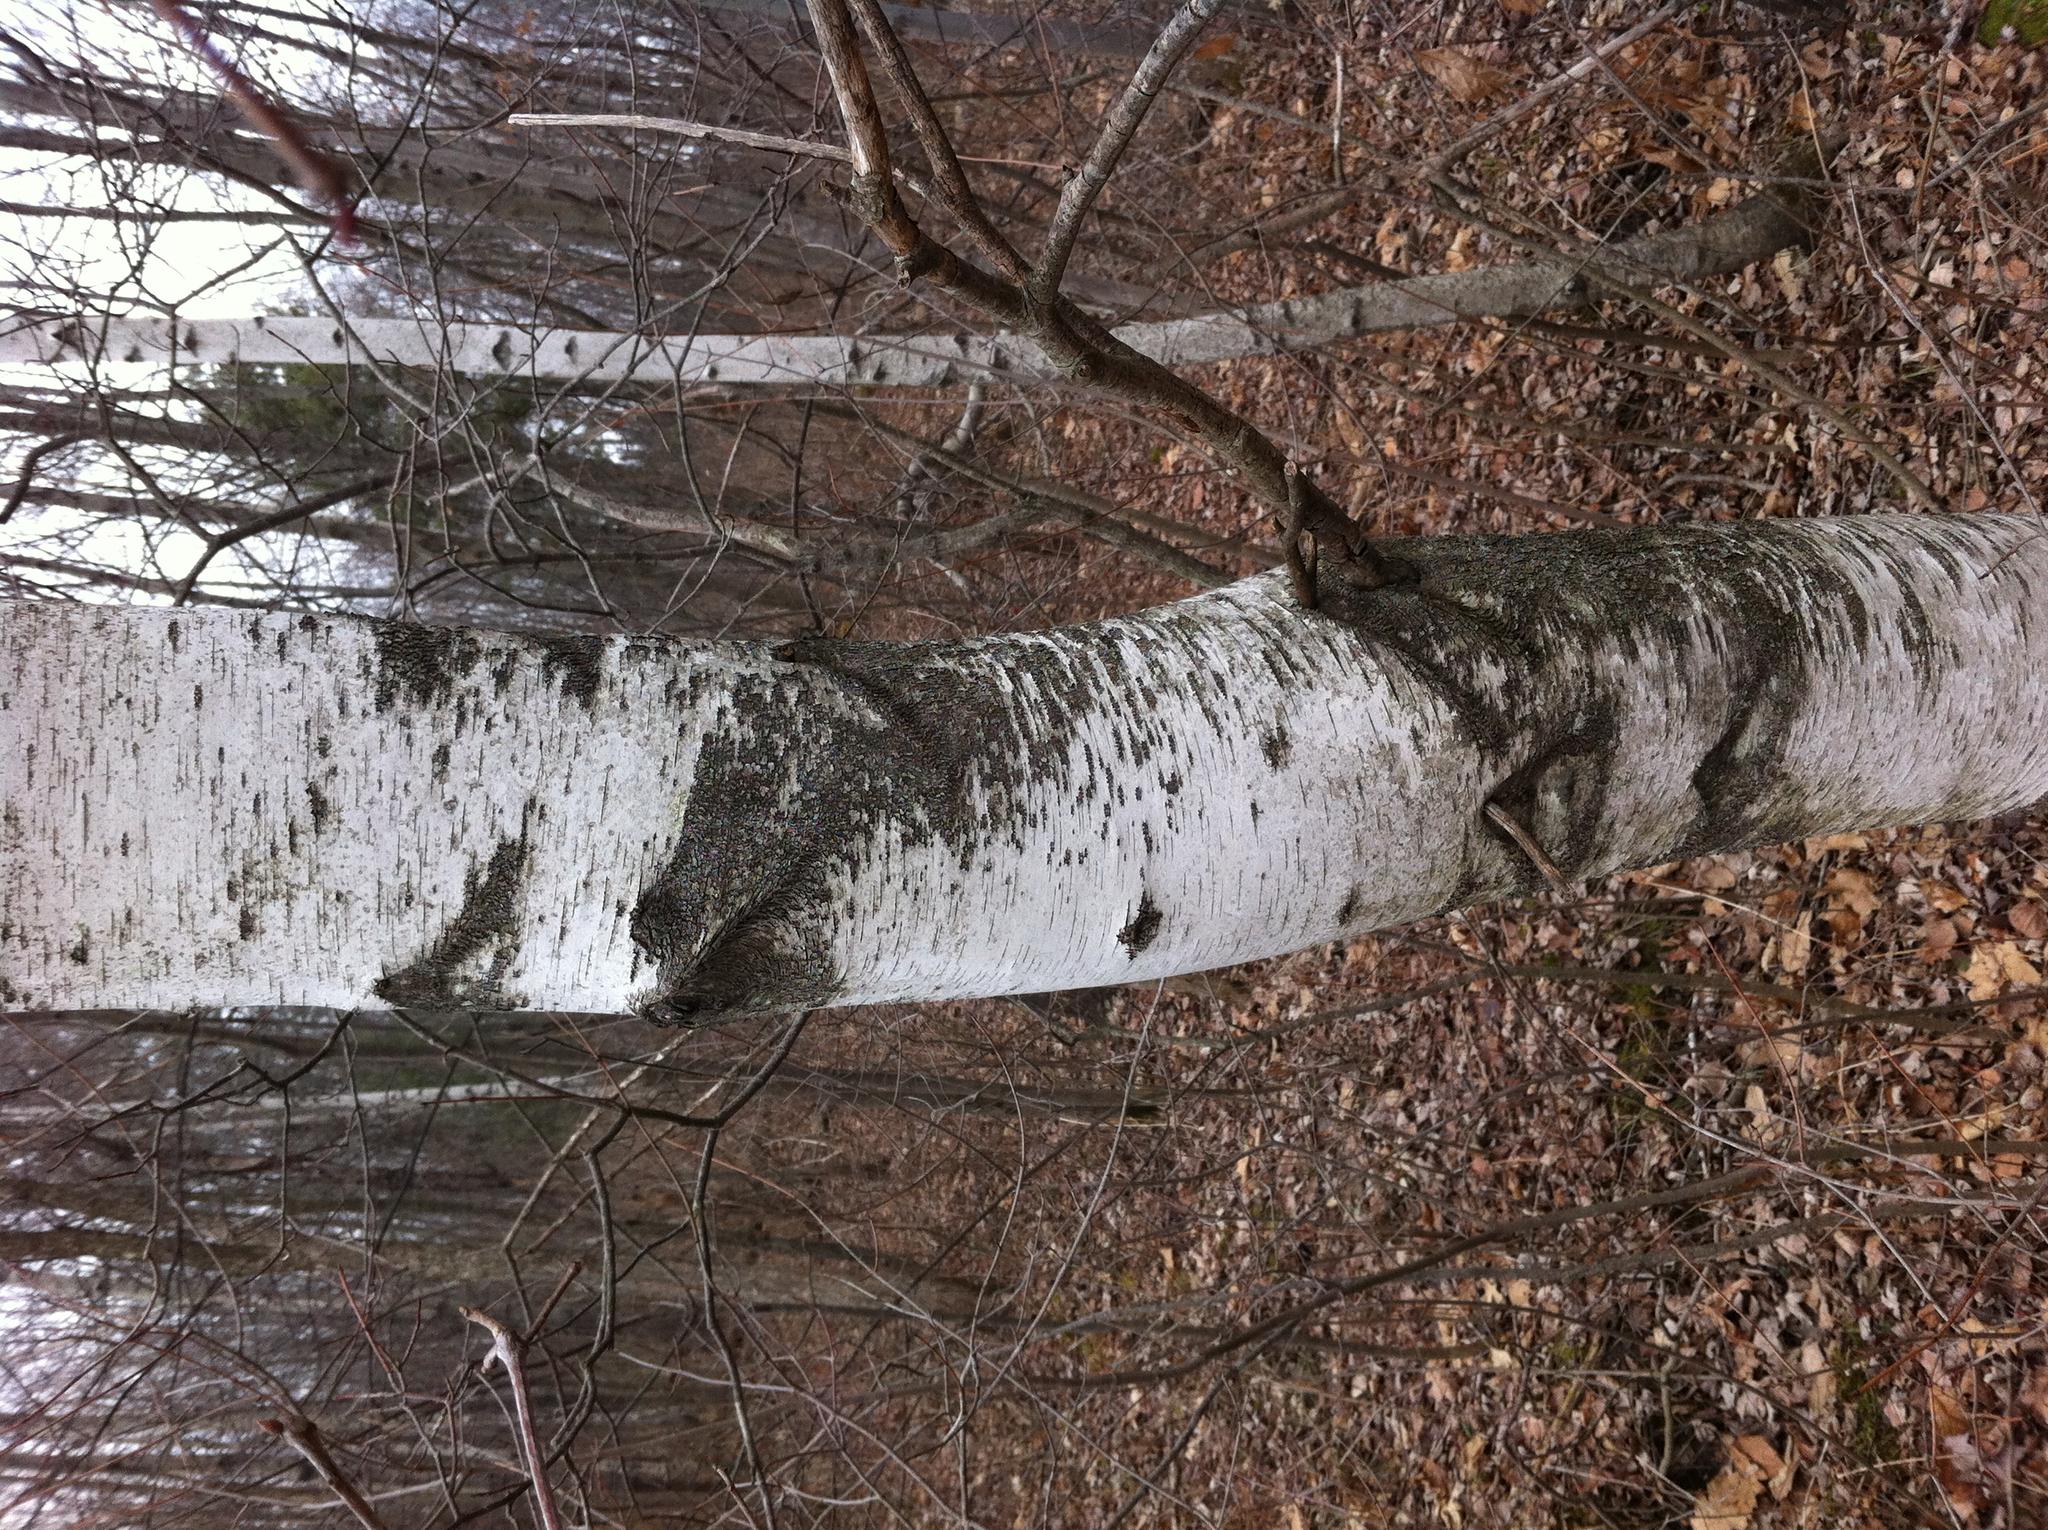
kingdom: Plantae
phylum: Tracheophyta
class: Magnoliopsida
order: Fagales
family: Betulaceae
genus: Betula
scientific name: Betula populifolia
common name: Fire birch
